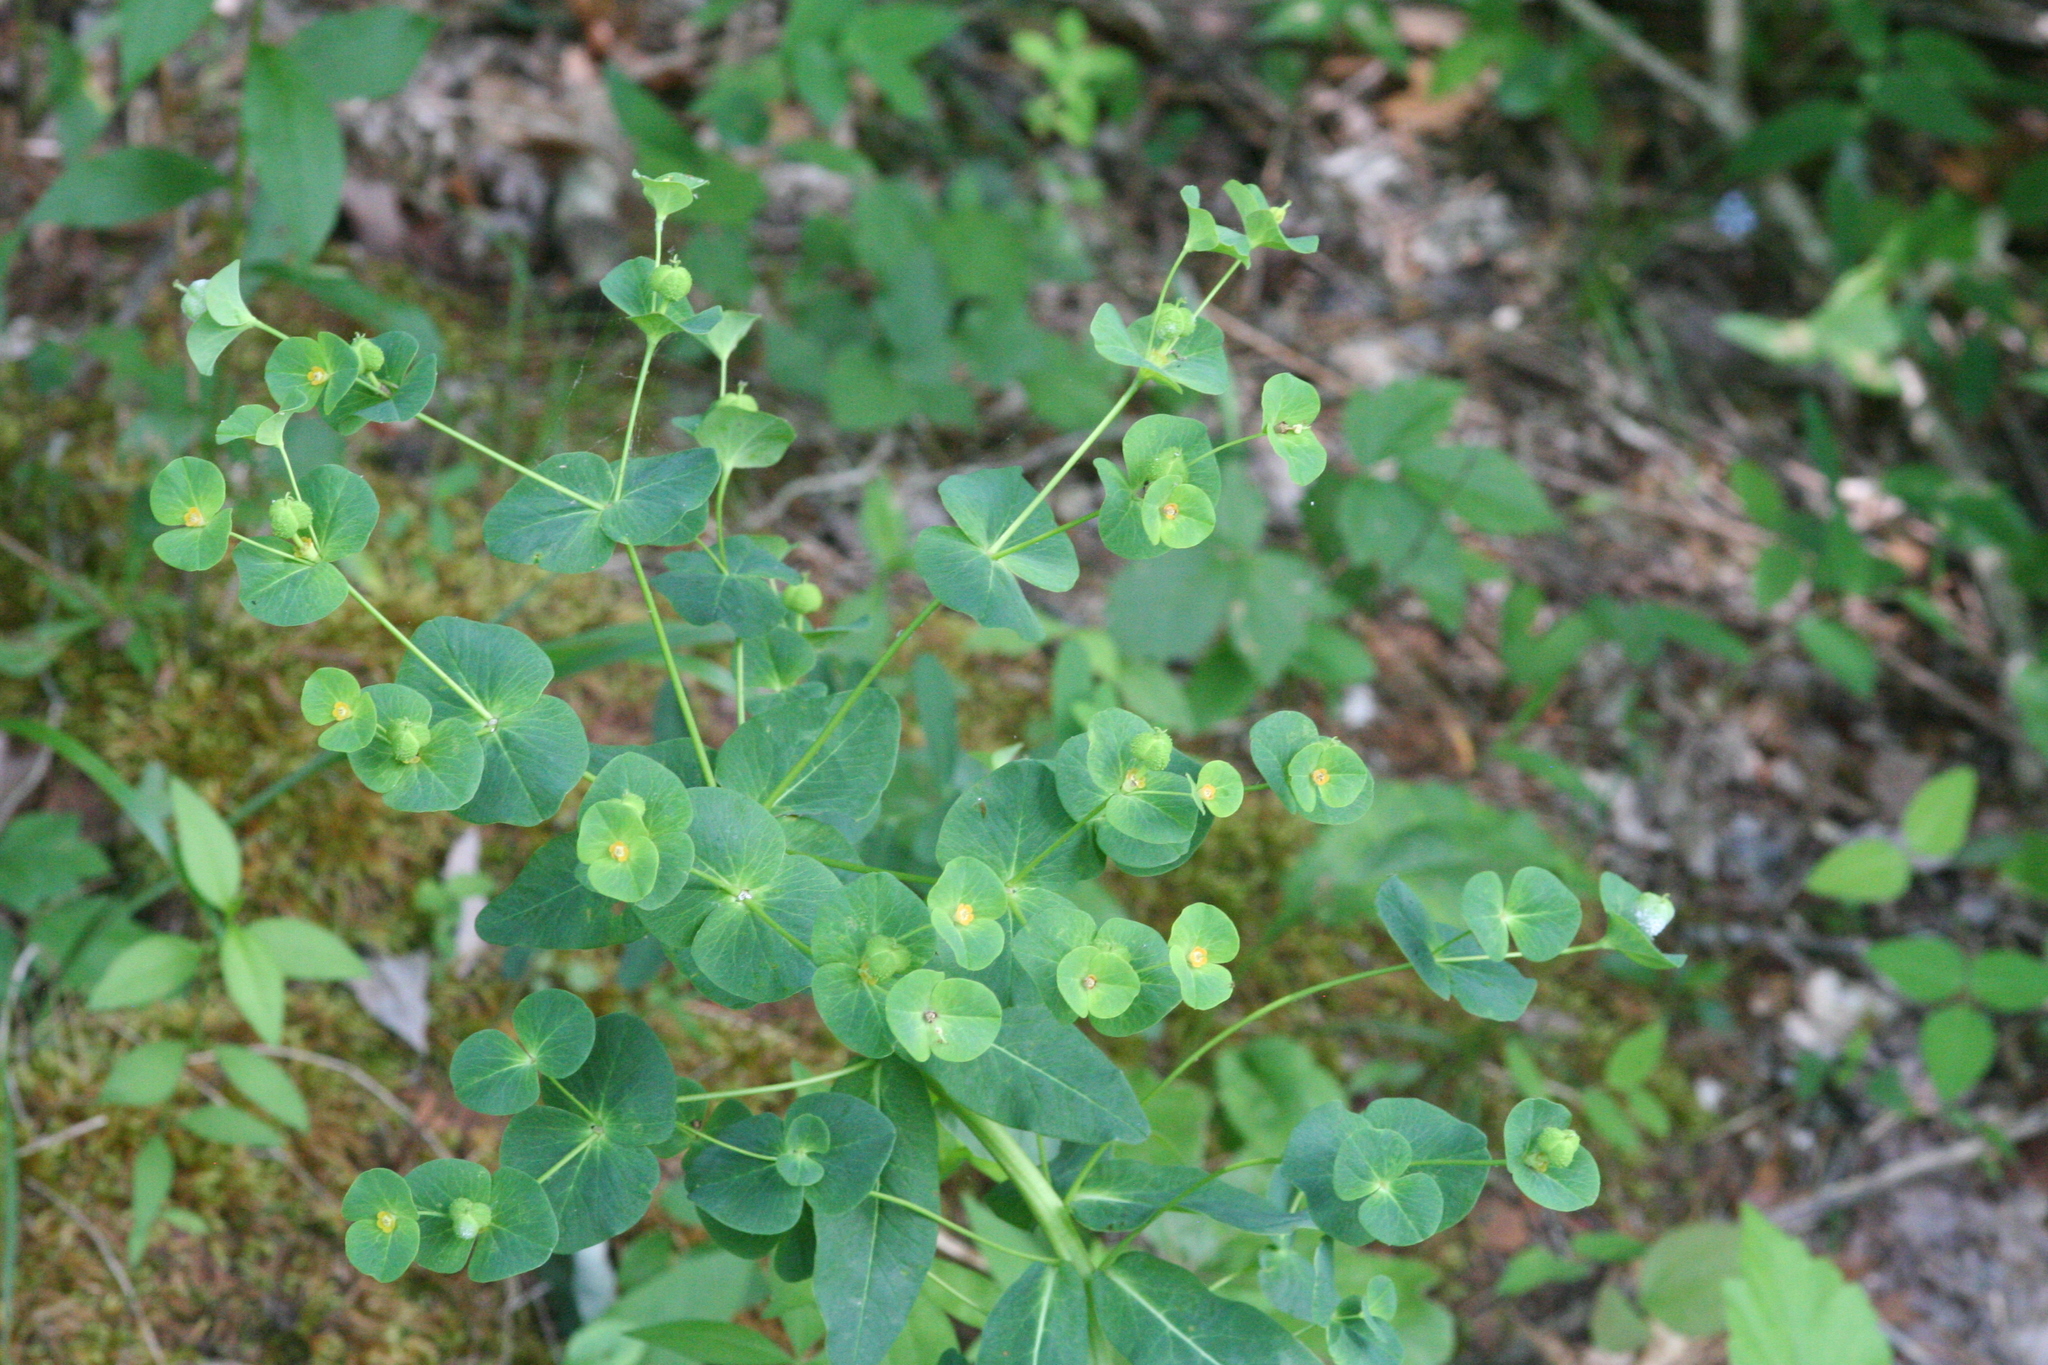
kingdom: Plantae
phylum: Tracheophyta
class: Magnoliopsida
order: Malpighiales
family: Euphorbiaceae
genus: Euphorbia
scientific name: Euphorbia purpurea
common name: Darlington's spurge
